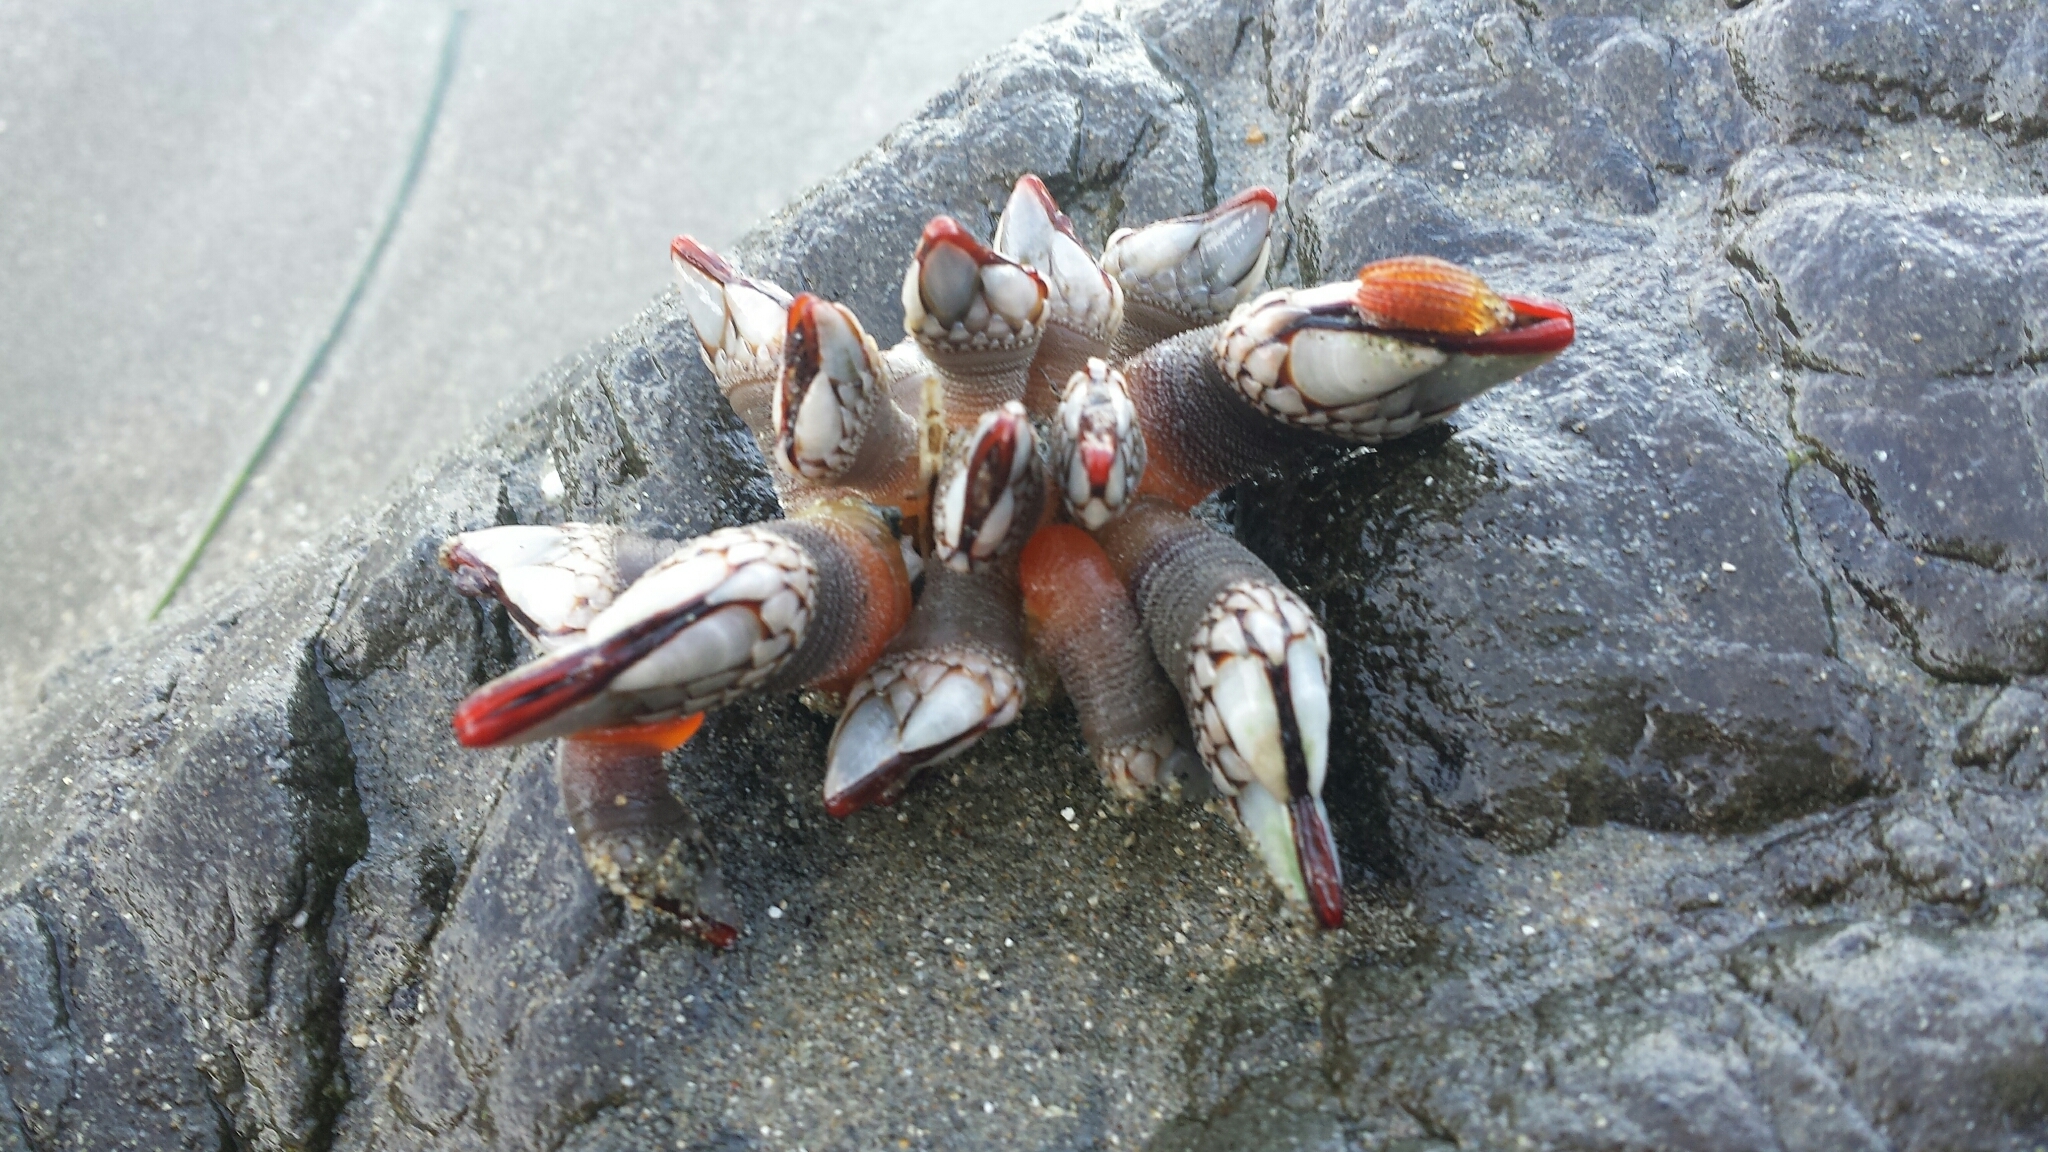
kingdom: Animalia
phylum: Arthropoda
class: Maxillopoda
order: Pedunculata
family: Pollicipedidae
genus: Pollicipes
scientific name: Pollicipes polymerus
